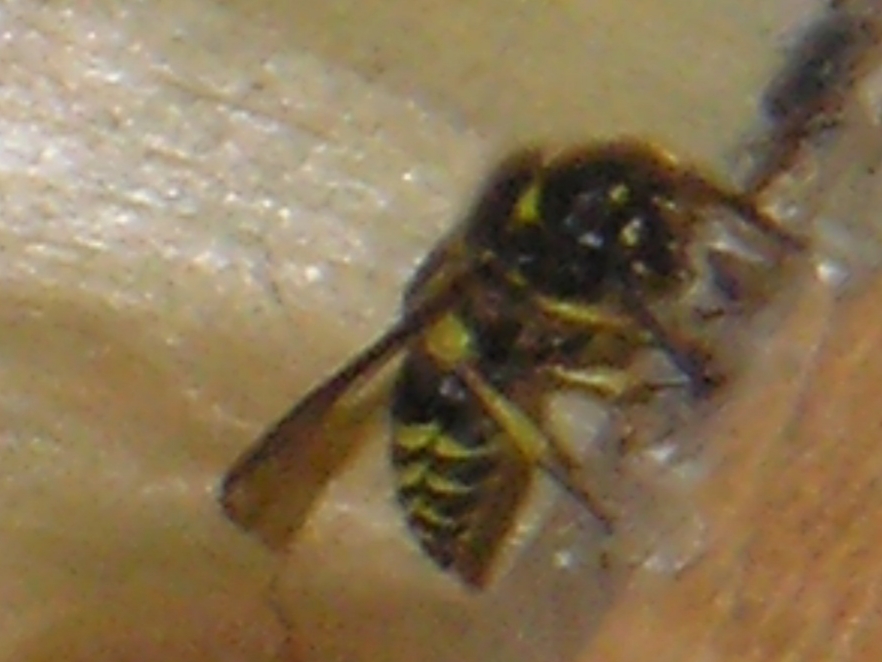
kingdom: Animalia
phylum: Arthropoda
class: Insecta
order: Hymenoptera
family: Vespidae
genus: Ancistrocerus
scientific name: Ancistrocerus
